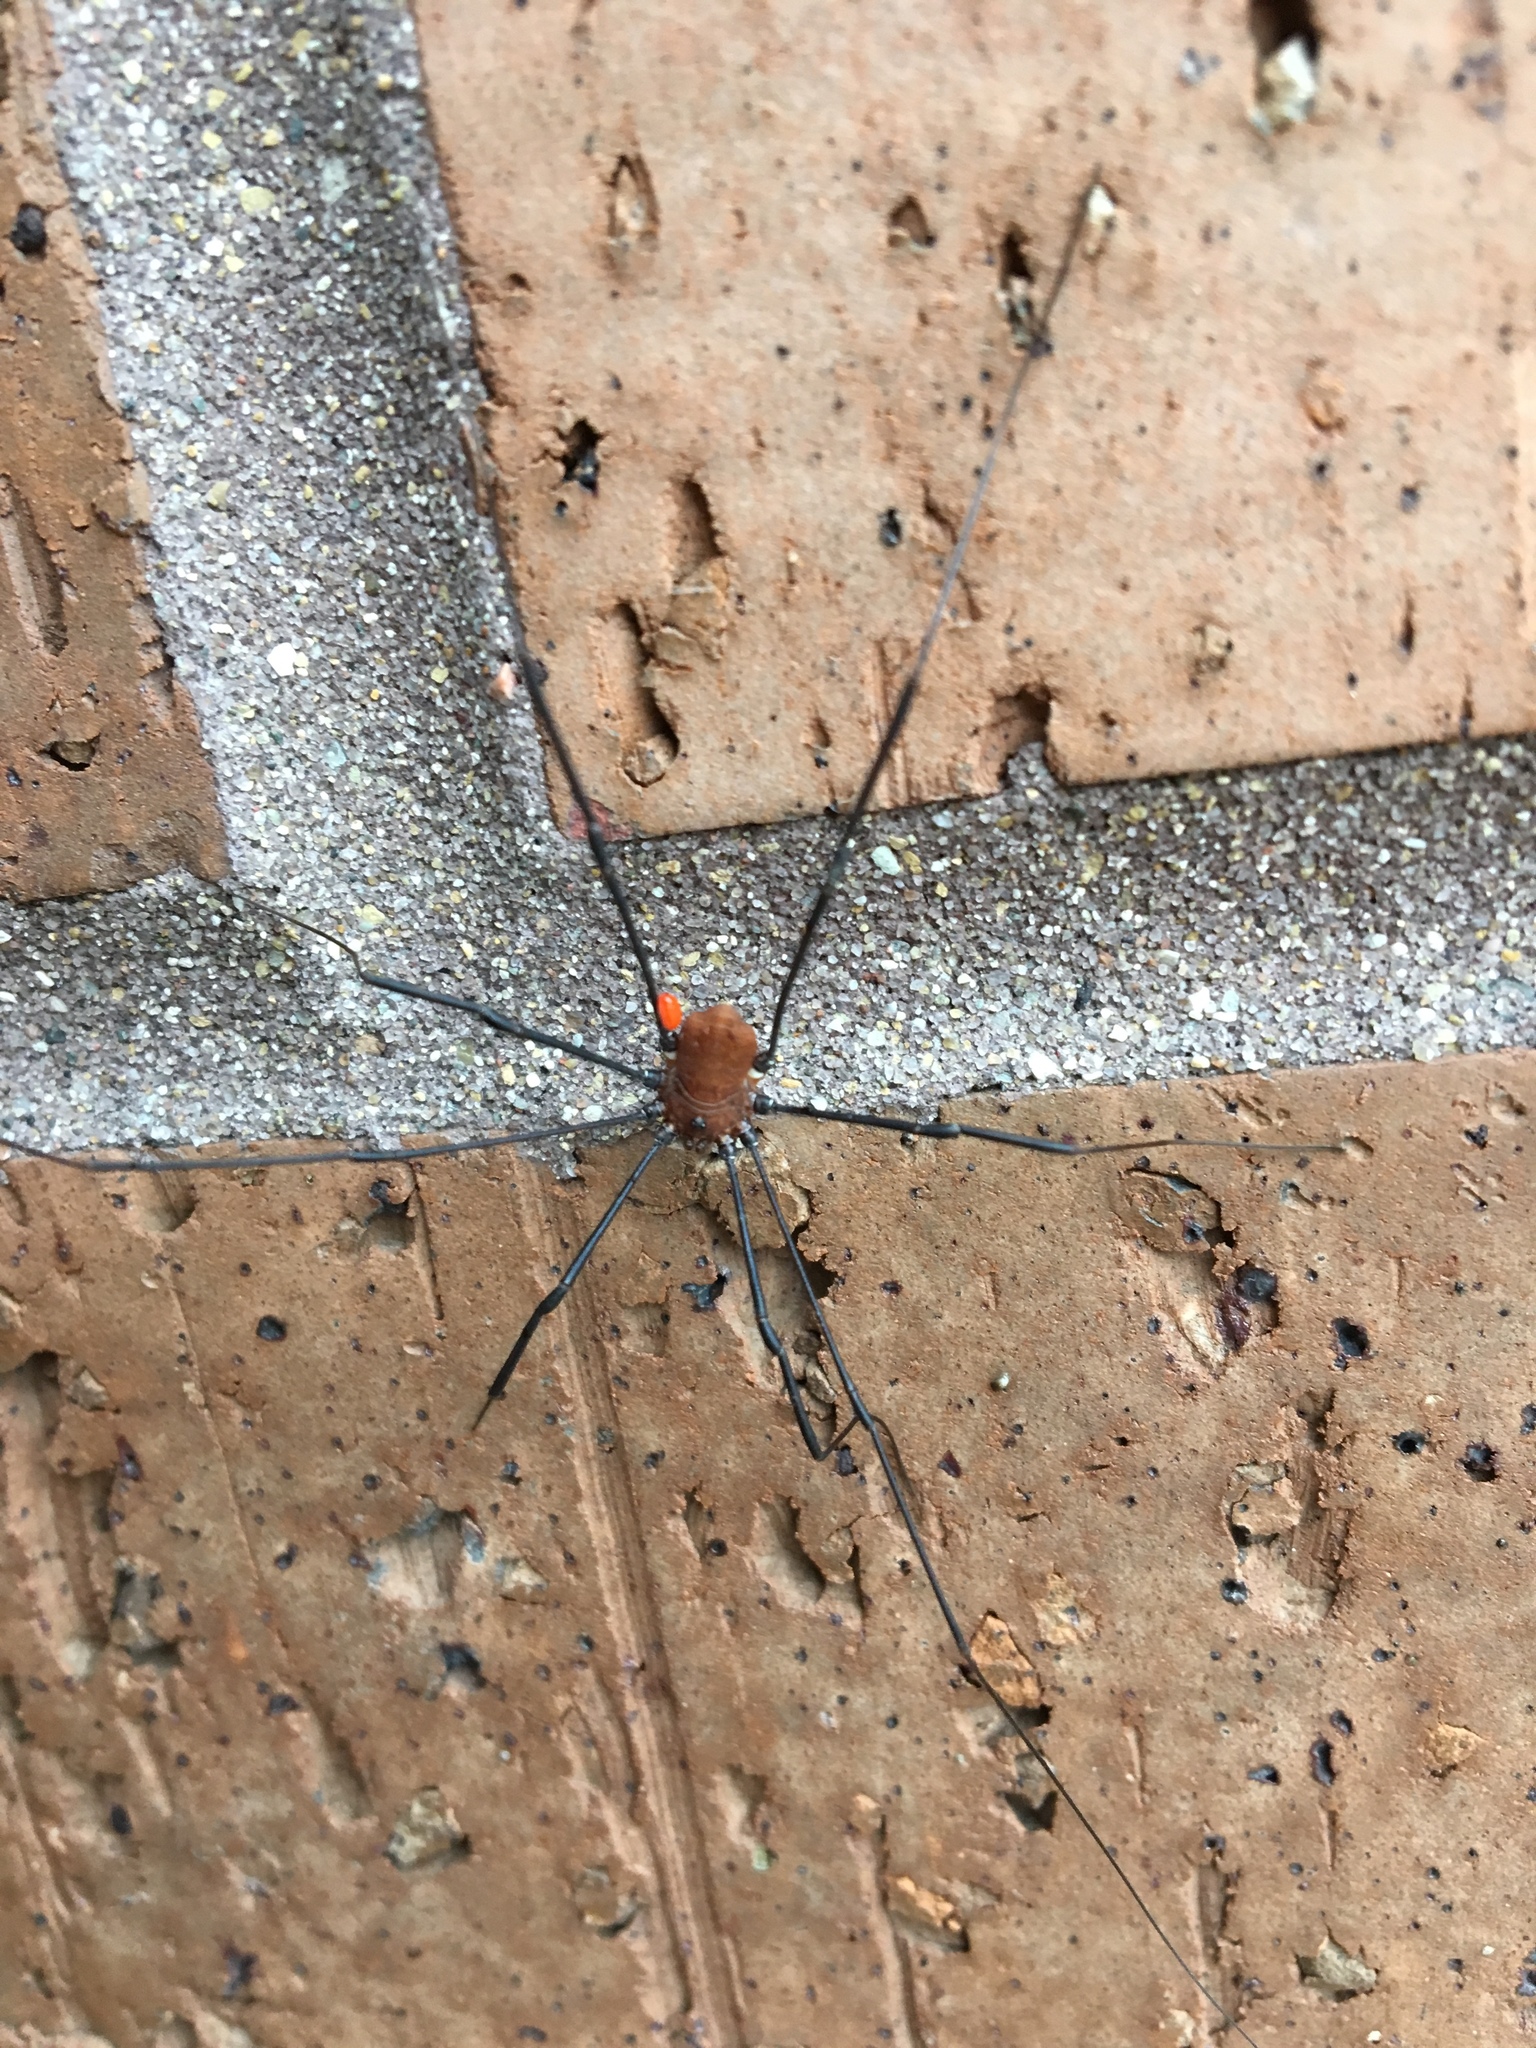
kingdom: Animalia
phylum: Arthropoda
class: Arachnida
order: Opiliones
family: Sclerosomatidae
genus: Leiobunum
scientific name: Leiobunum verrucosum
